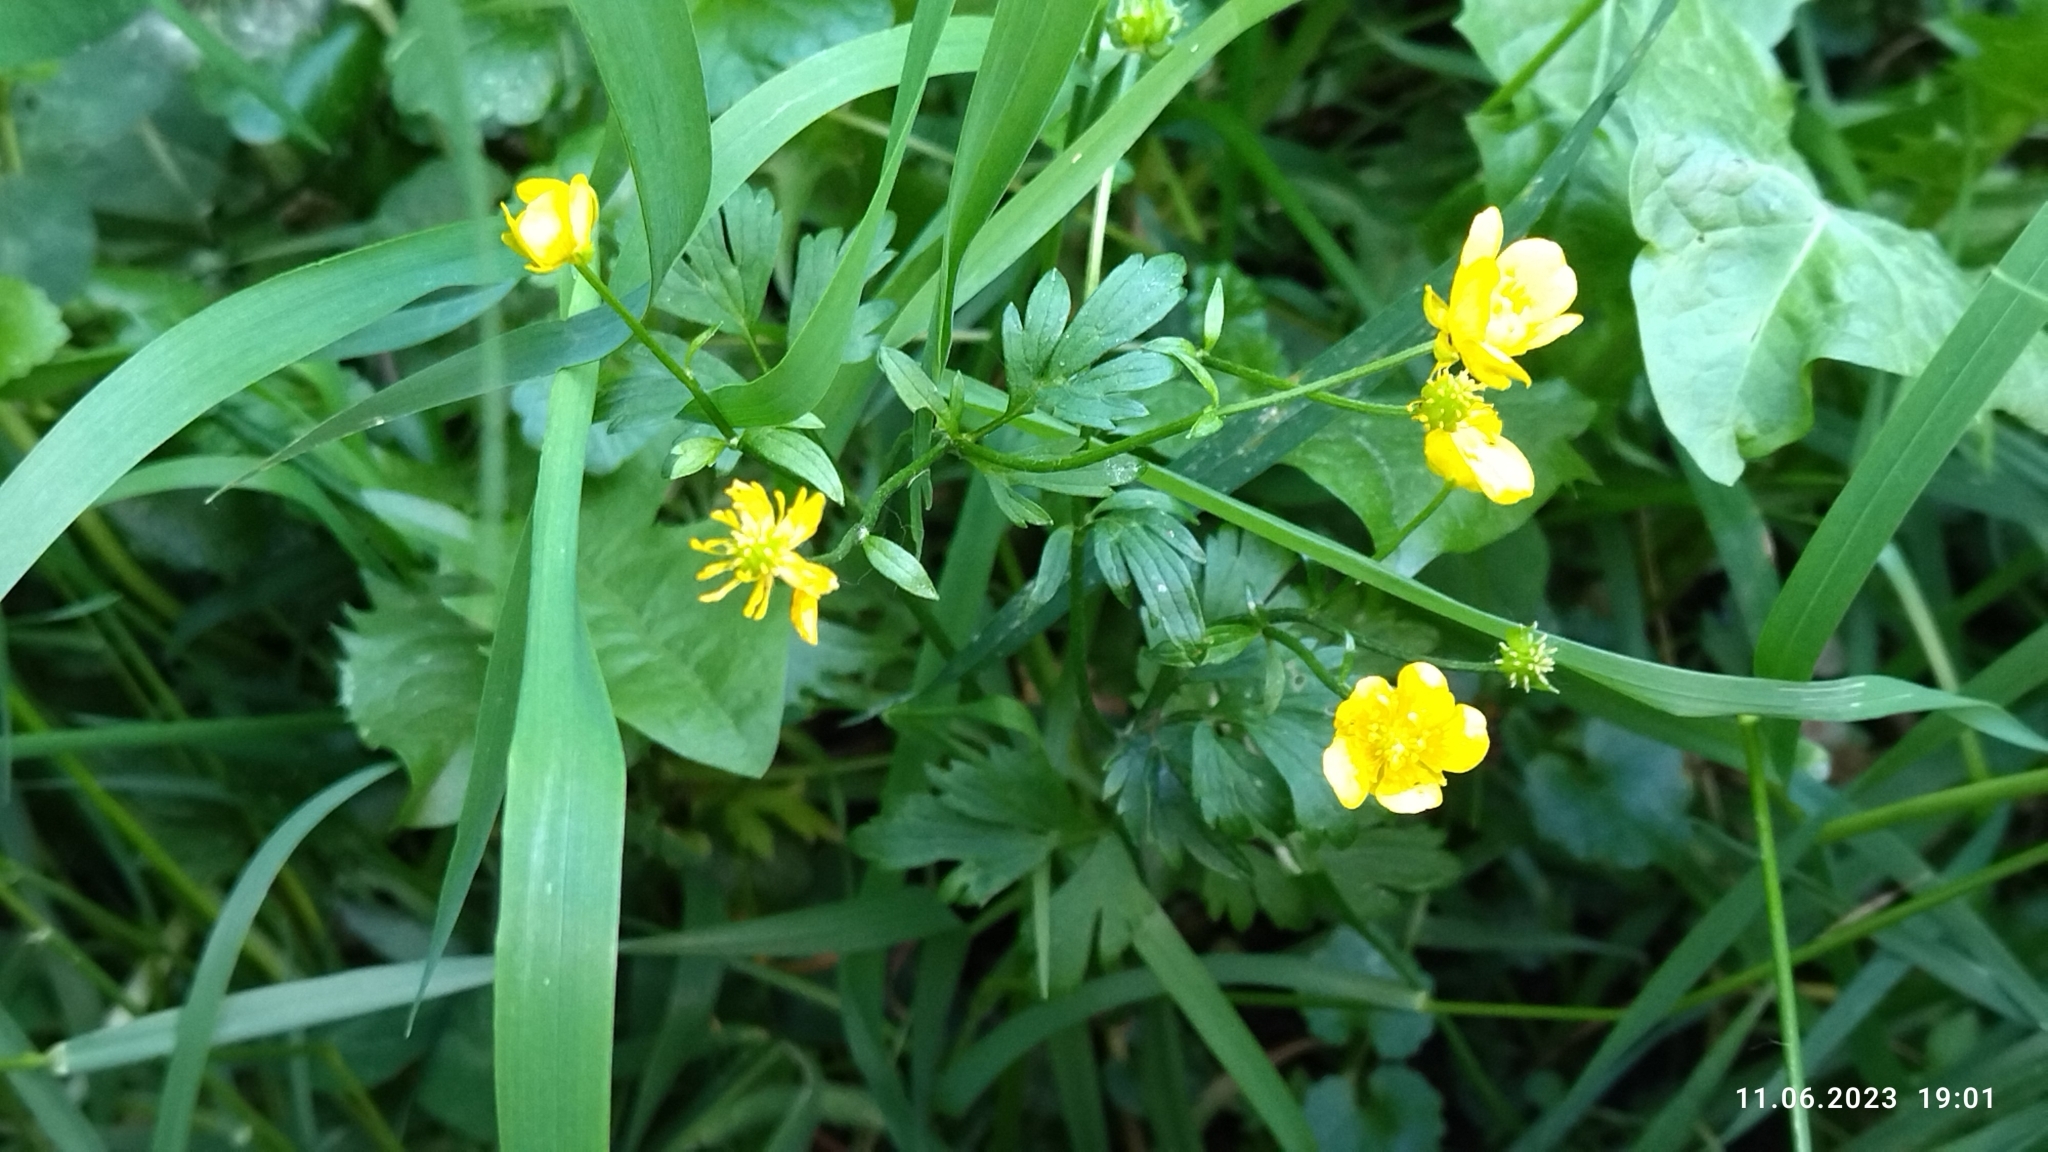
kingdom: Plantae
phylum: Tracheophyta
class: Magnoliopsida
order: Ranunculales
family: Ranunculaceae
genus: Ranunculus
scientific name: Ranunculus repens
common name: Creeping buttercup
